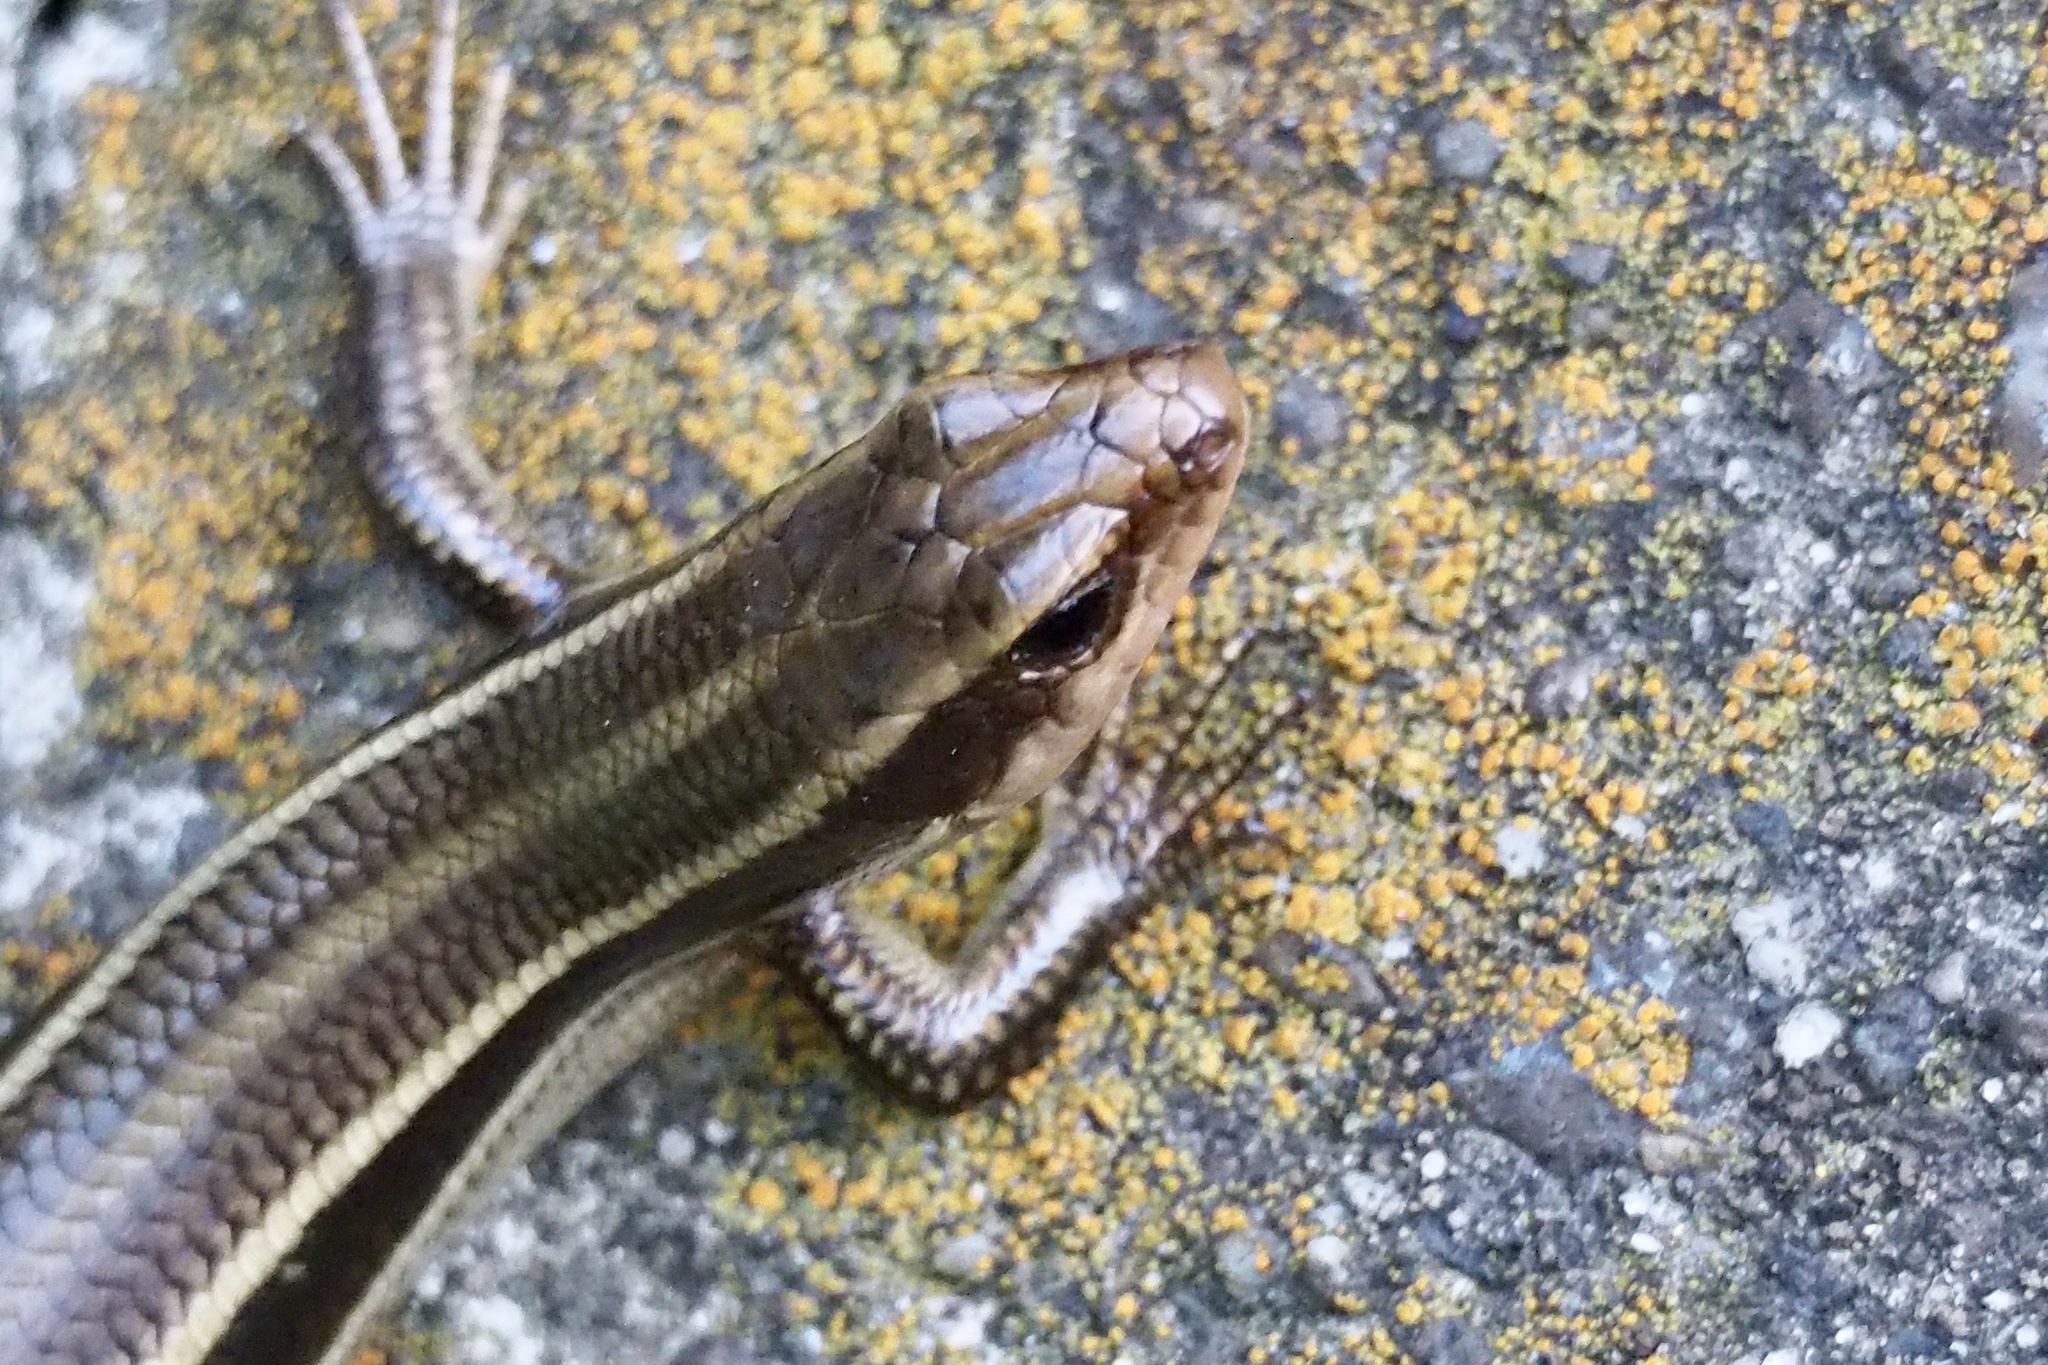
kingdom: Animalia
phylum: Chordata
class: Squamata
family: Scincidae
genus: Plestiodon
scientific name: Plestiodon finitimus
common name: Far eastern skink
